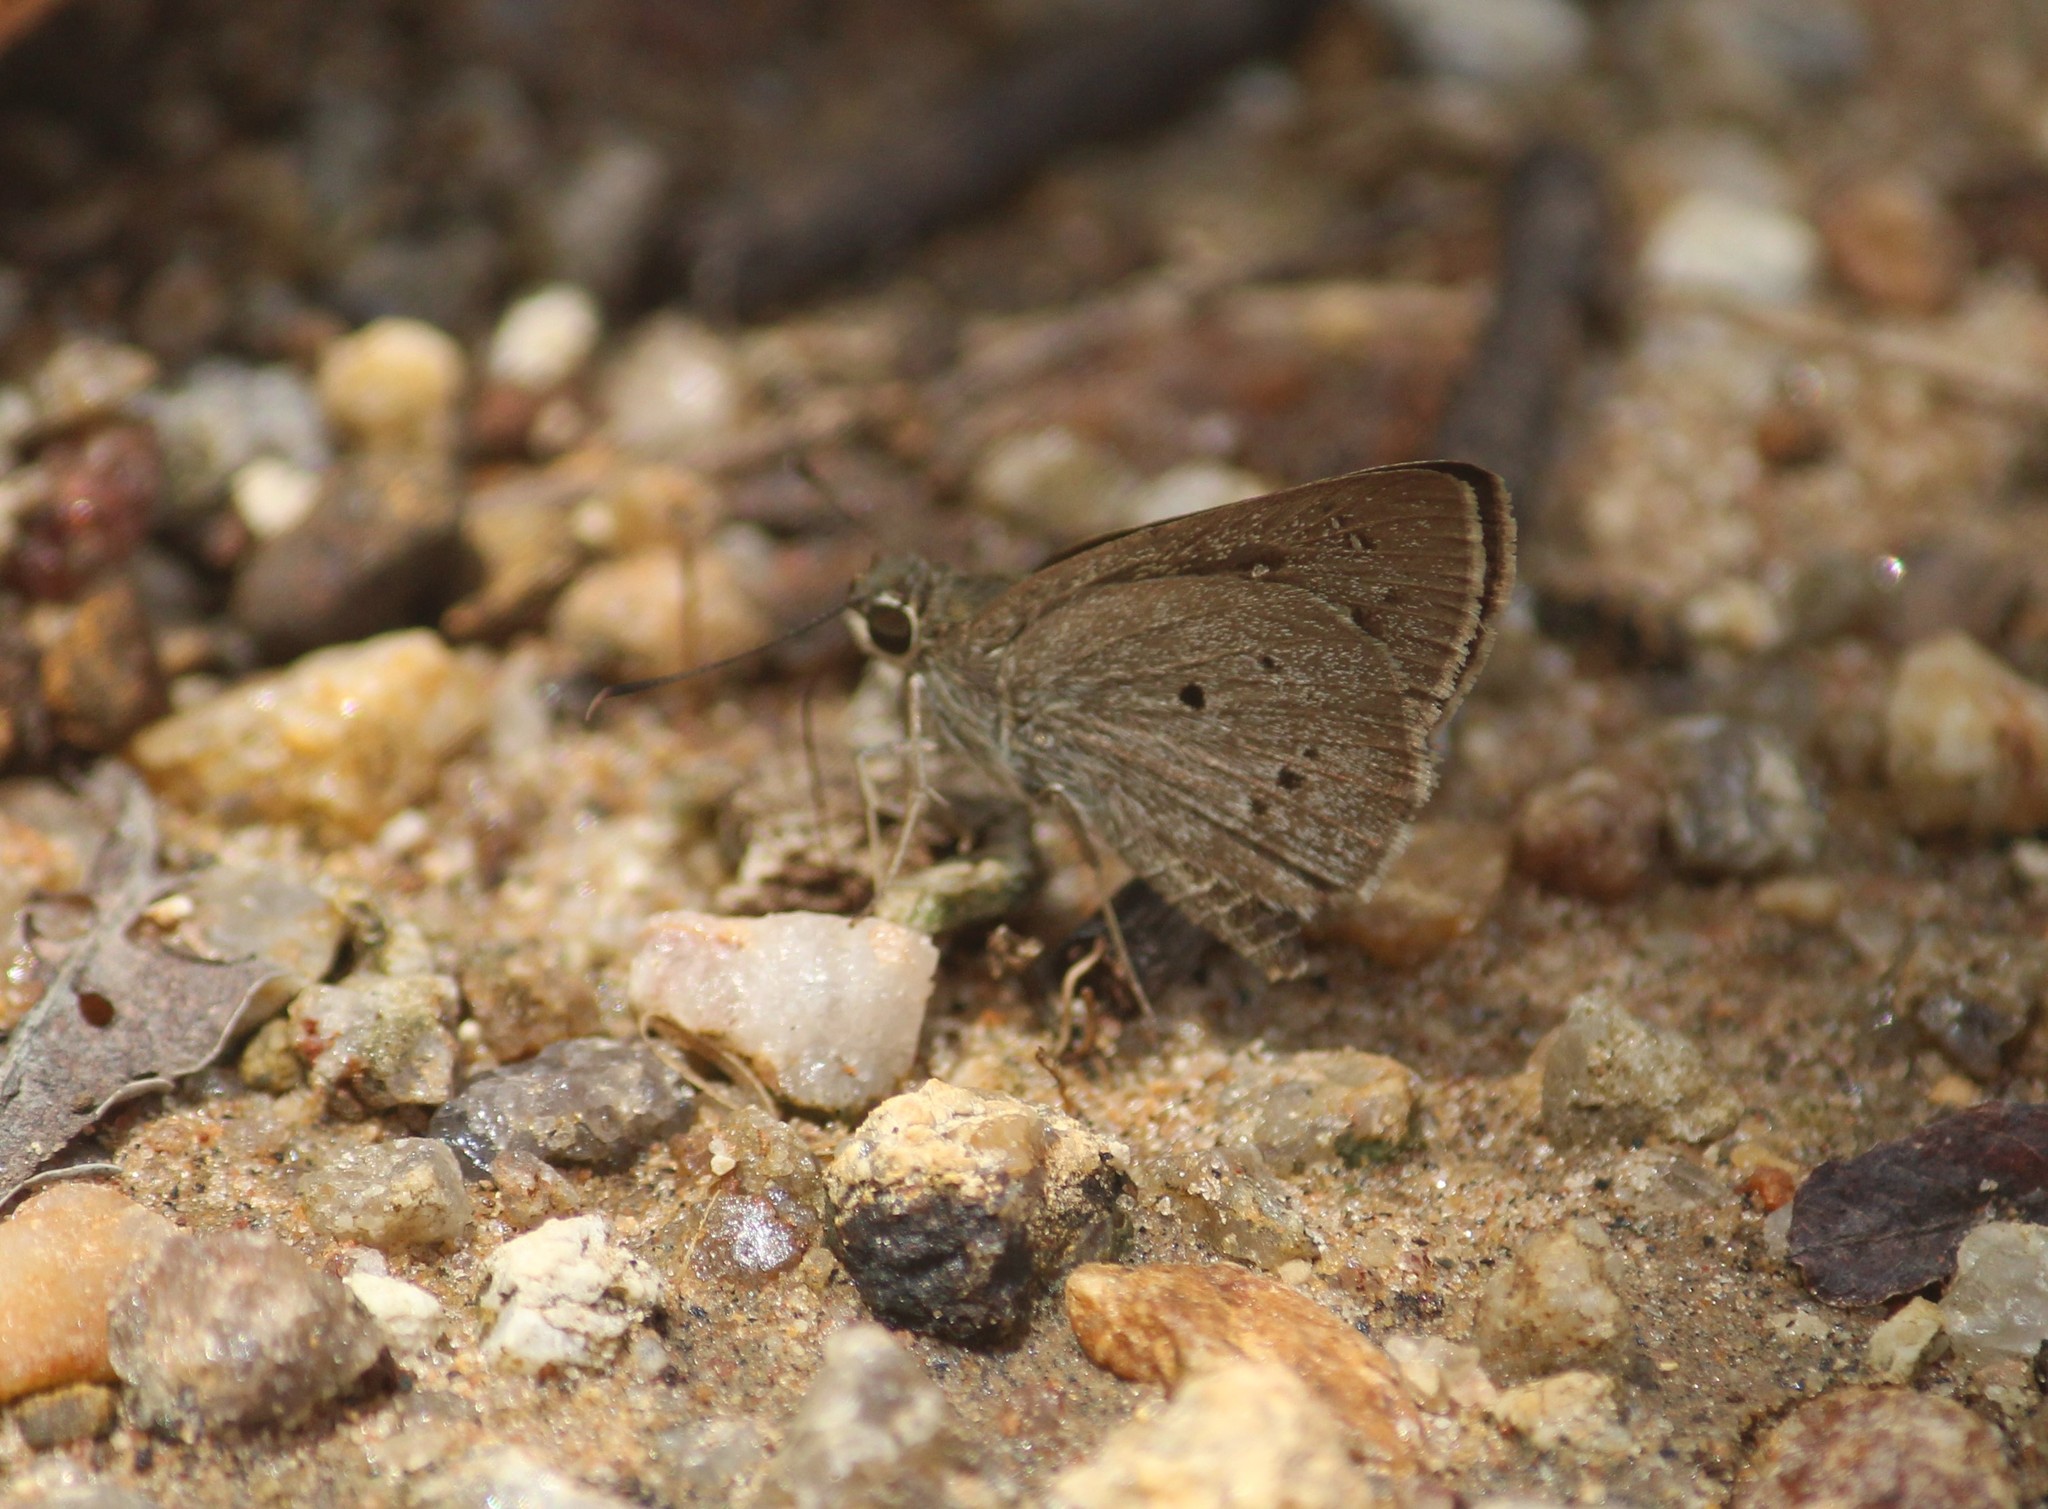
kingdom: Animalia
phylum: Arthropoda
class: Insecta
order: Lepidoptera
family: Hesperiidae
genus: Suastus
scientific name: Suastus gremius
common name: Indian palm bob
